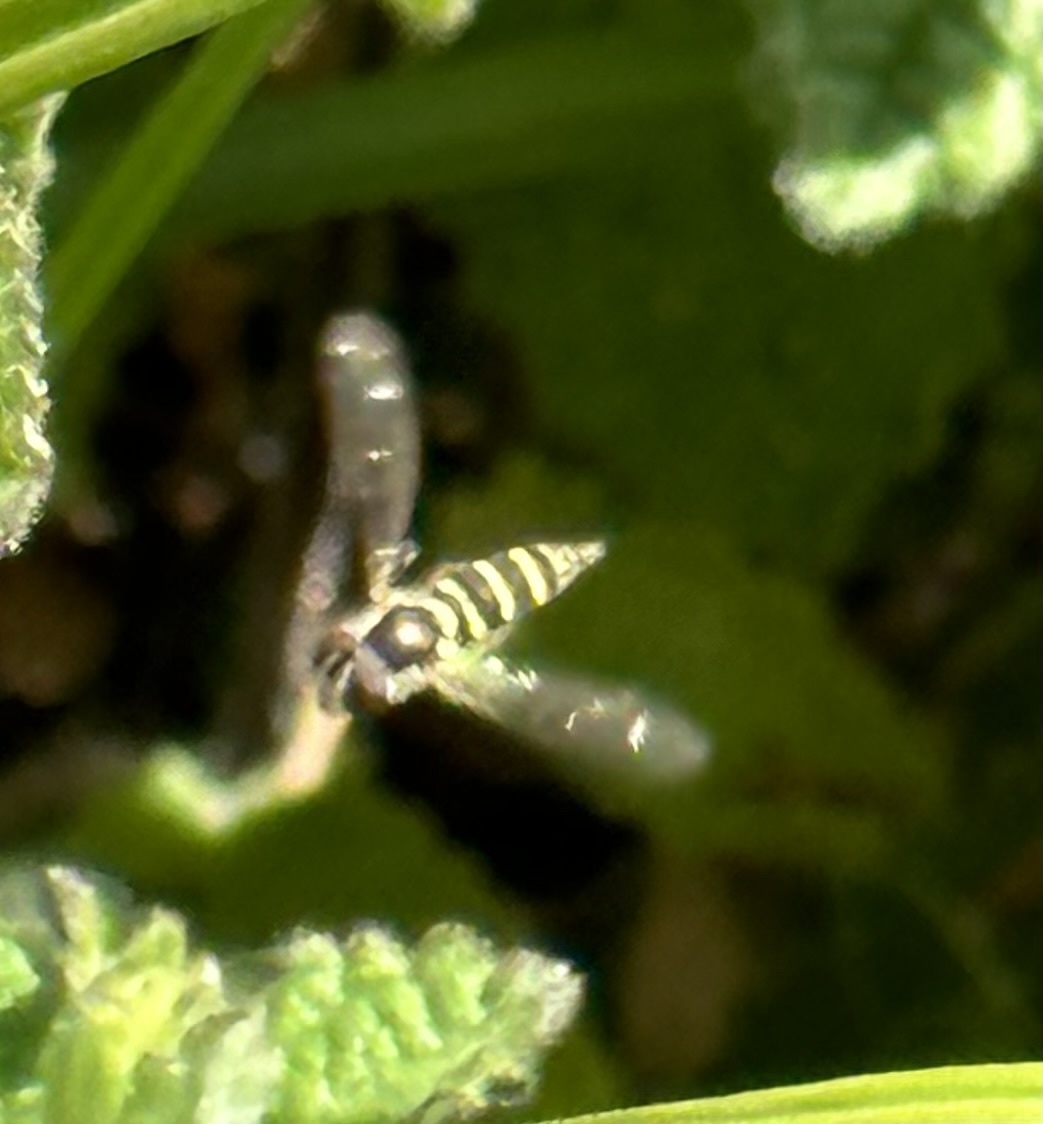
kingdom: Animalia
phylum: Arthropoda
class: Insecta
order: Diptera
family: Syrphidae
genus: Fazia
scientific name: Fazia micrura
